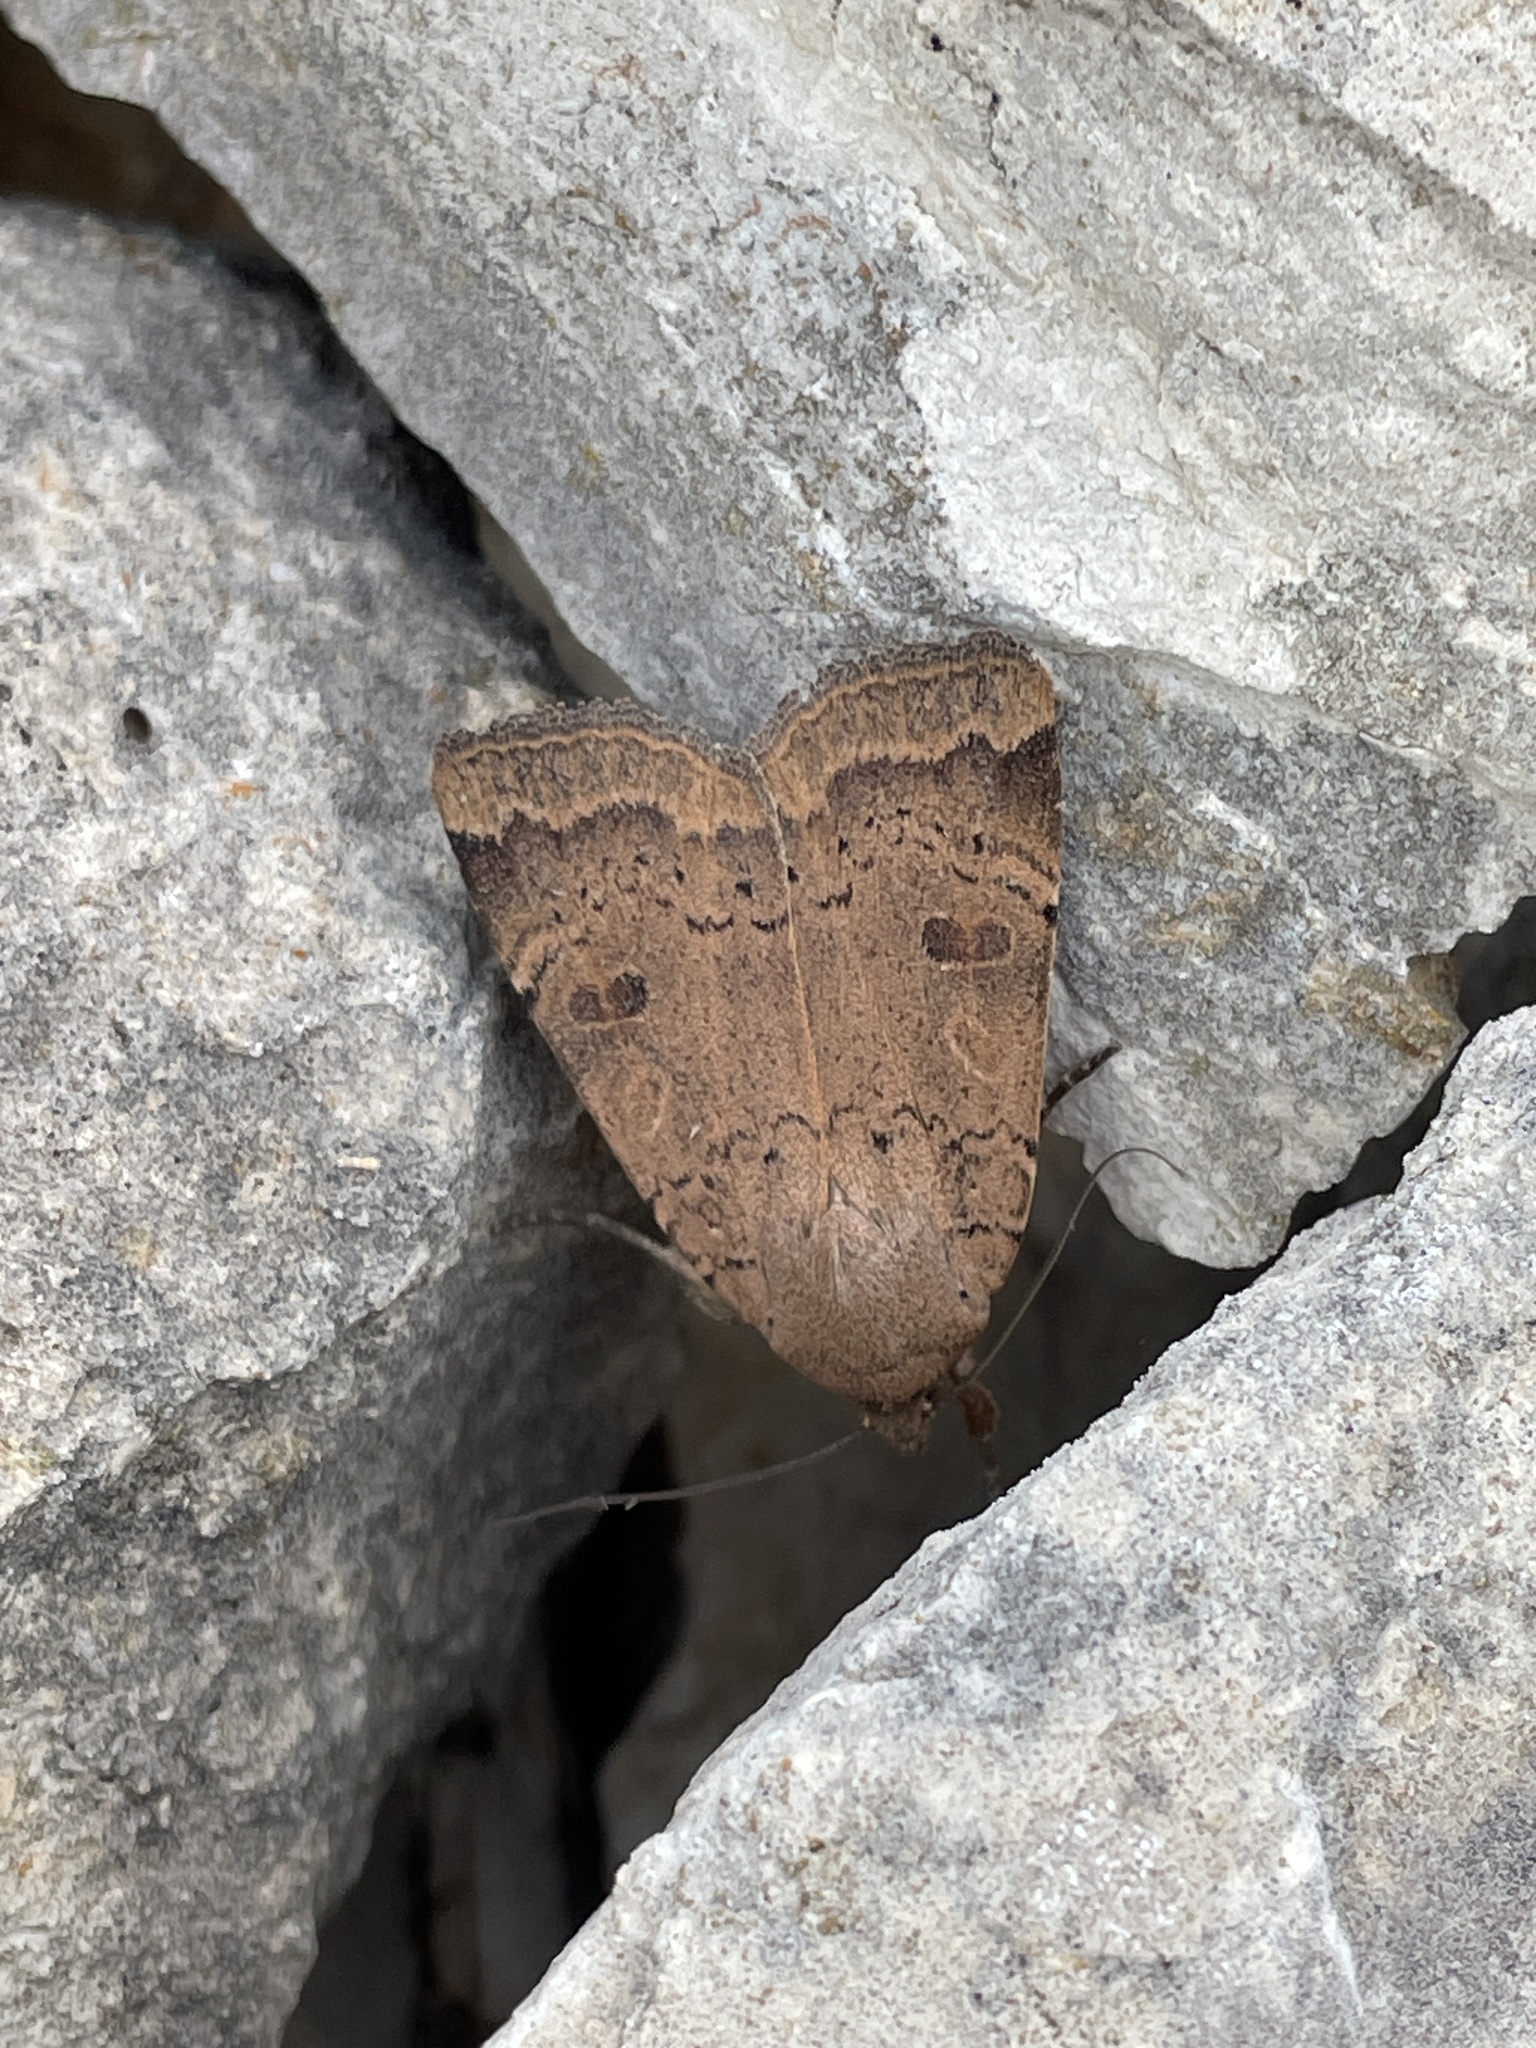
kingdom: Animalia
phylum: Arthropoda
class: Insecta
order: Lepidoptera
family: Noctuidae
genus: Noctua
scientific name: Noctua comes
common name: Lesser yellow underwing
